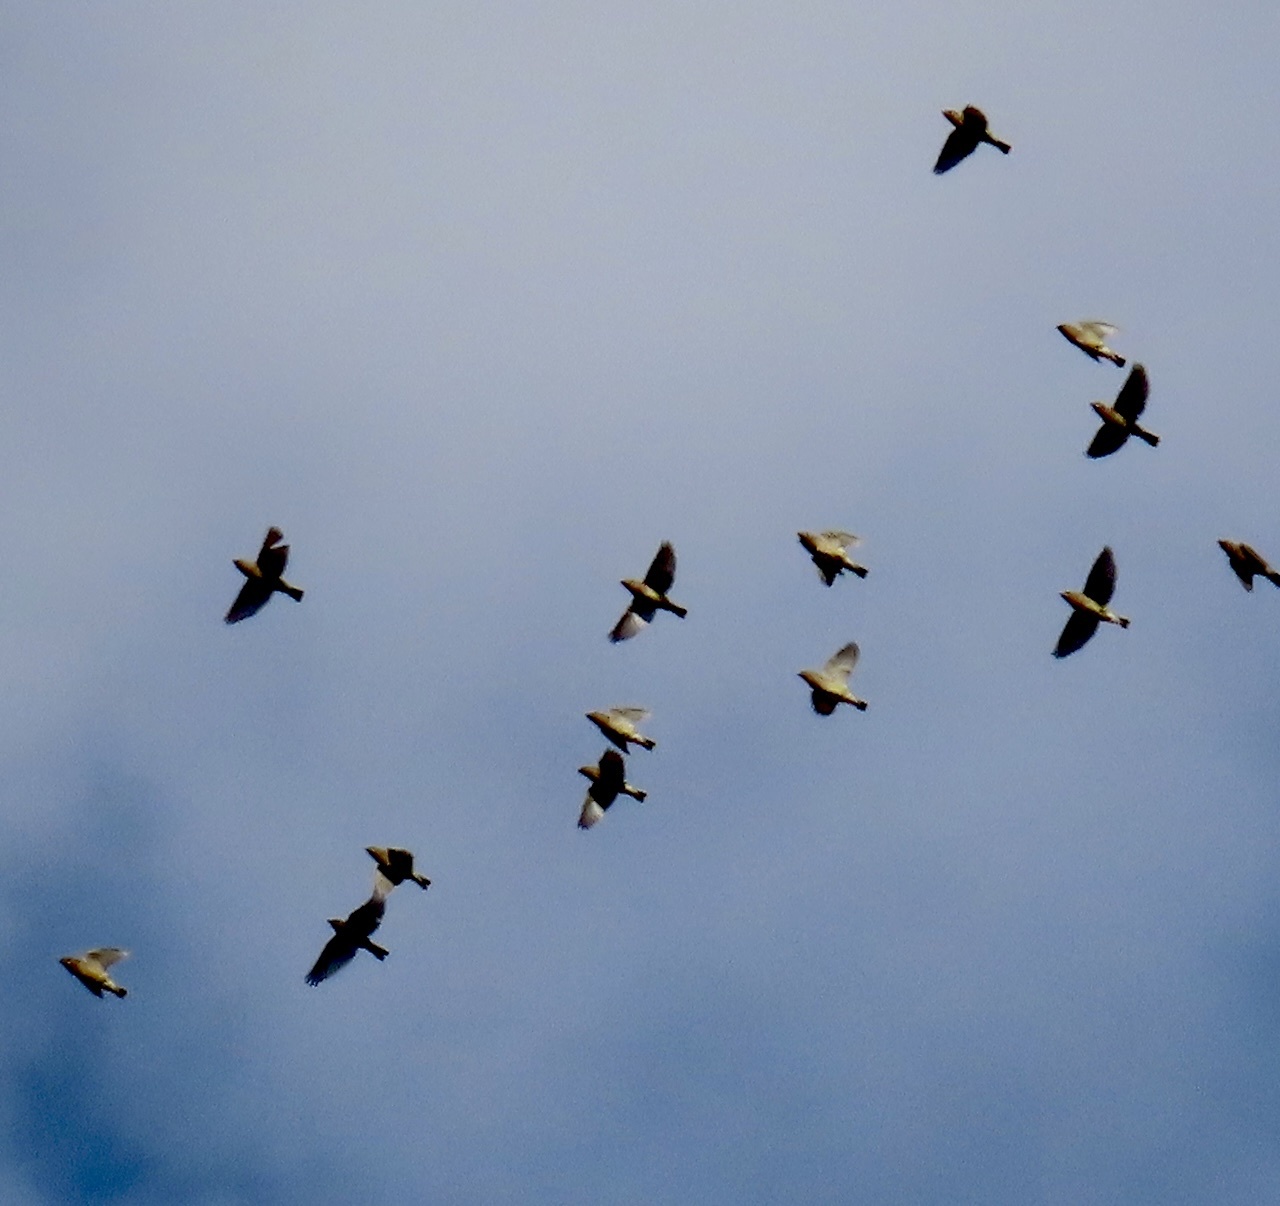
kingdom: Animalia
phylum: Chordata
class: Aves
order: Passeriformes
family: Bombycillidae
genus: Bombycilla
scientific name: Bombycilla cedrorum
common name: Cedar waxwing
